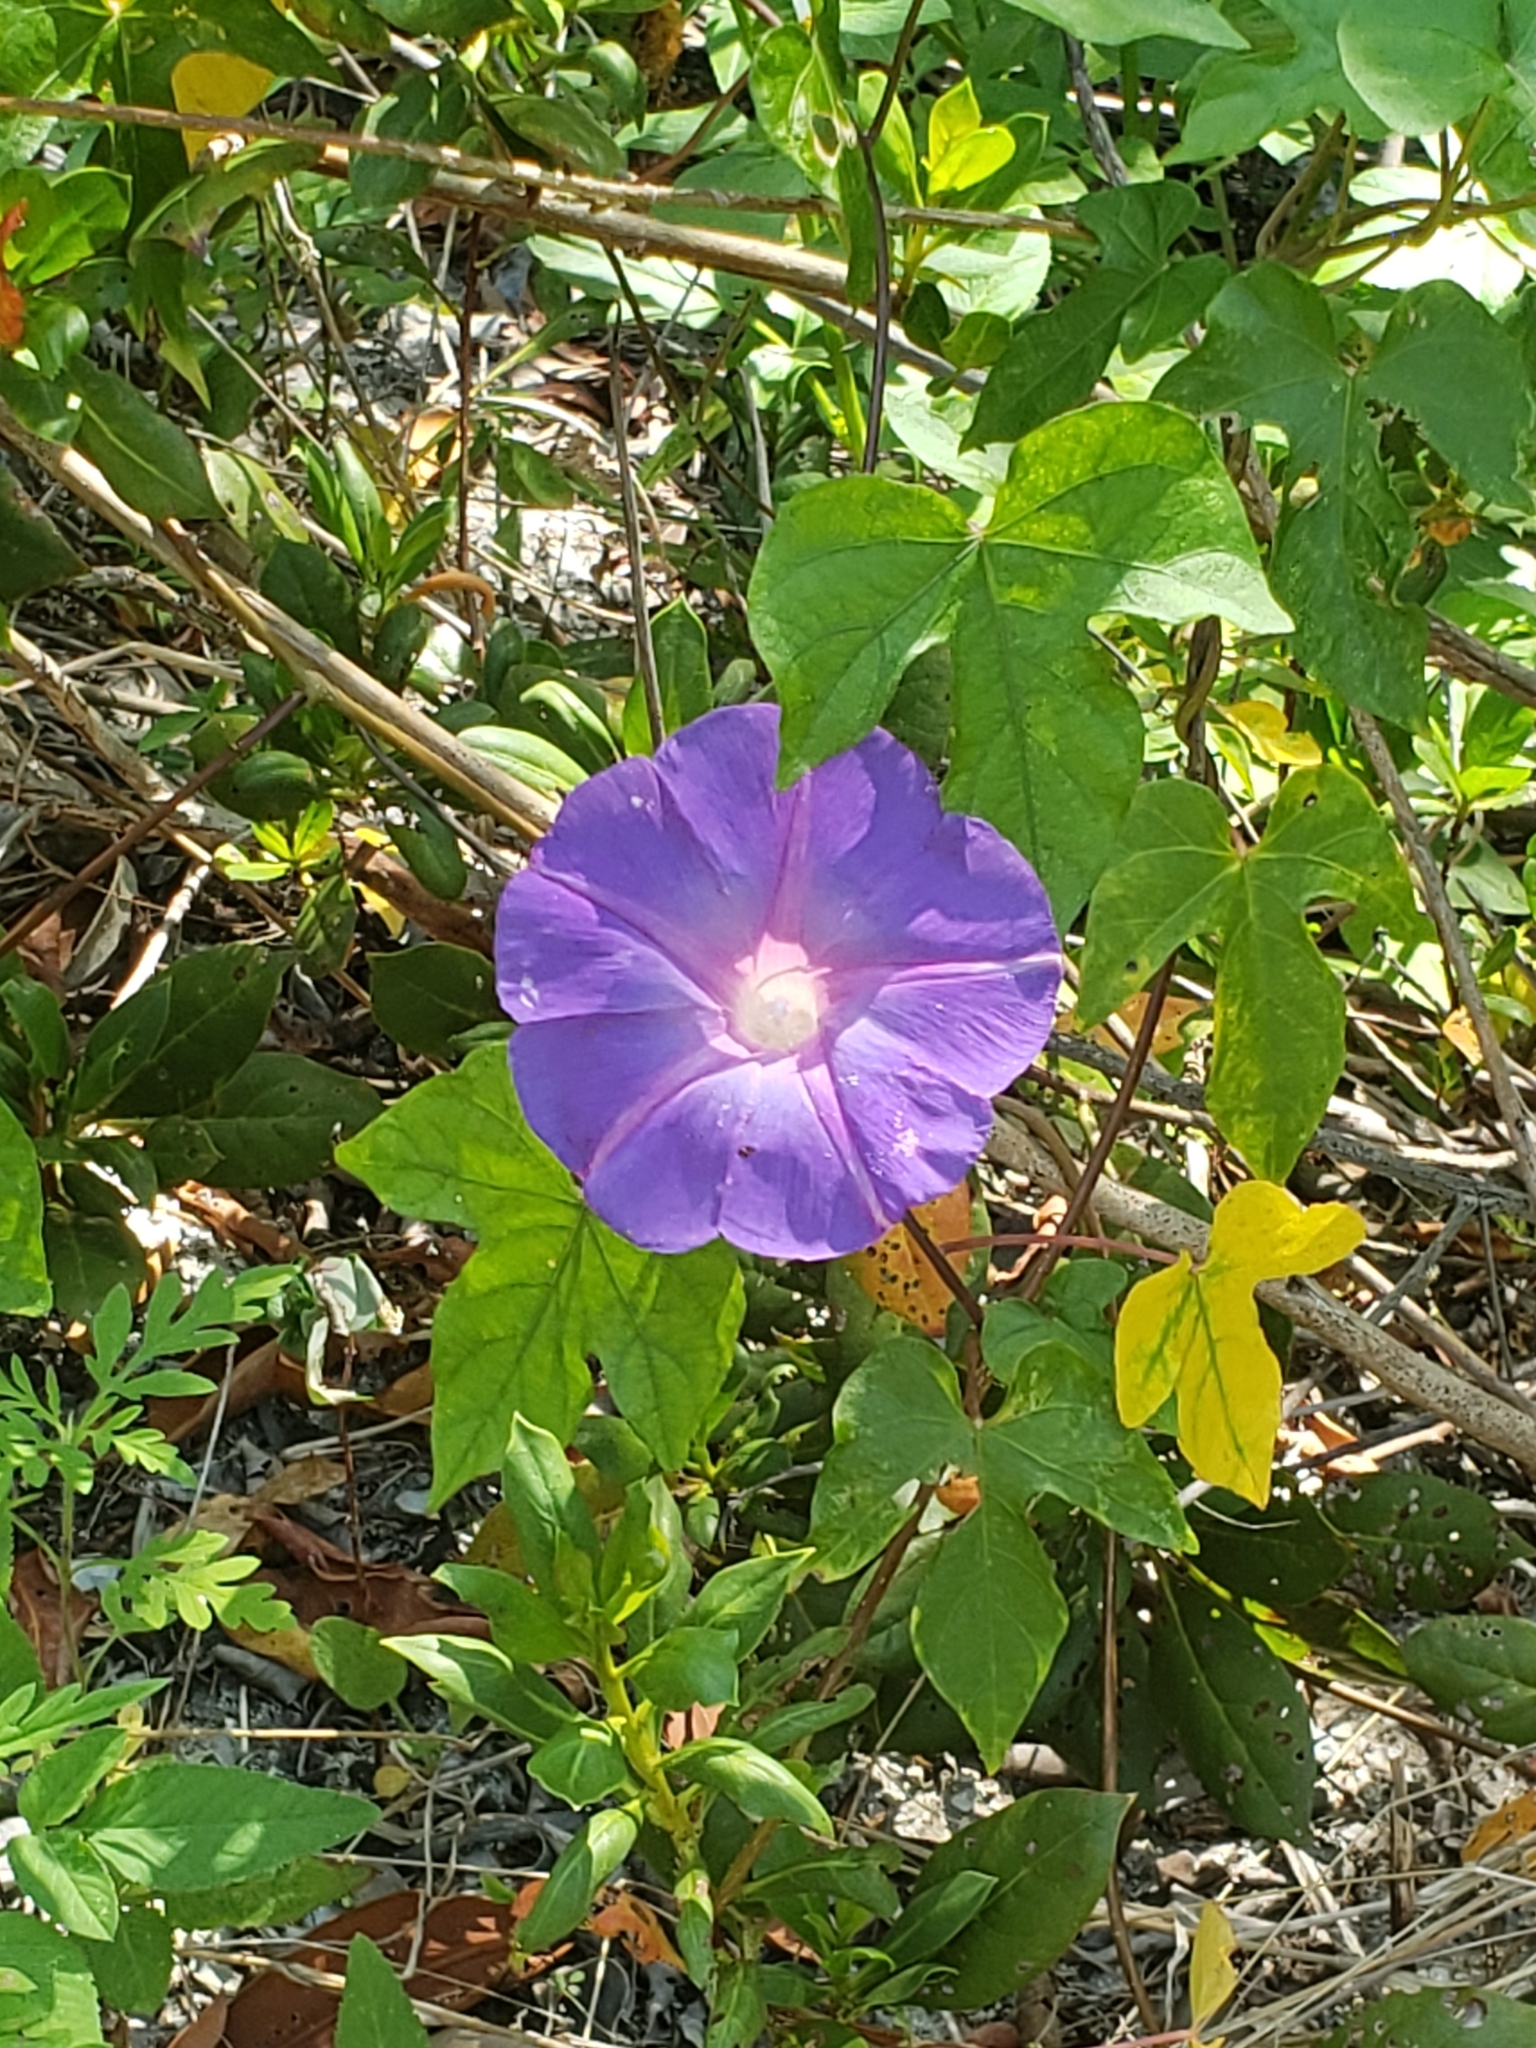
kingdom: Plantae
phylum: Tracheophyta
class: Magnoliopsida
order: Solanales
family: Convolvulaceae
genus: Ipomoea
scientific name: Ipomoea indica
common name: Blue dawnflower
